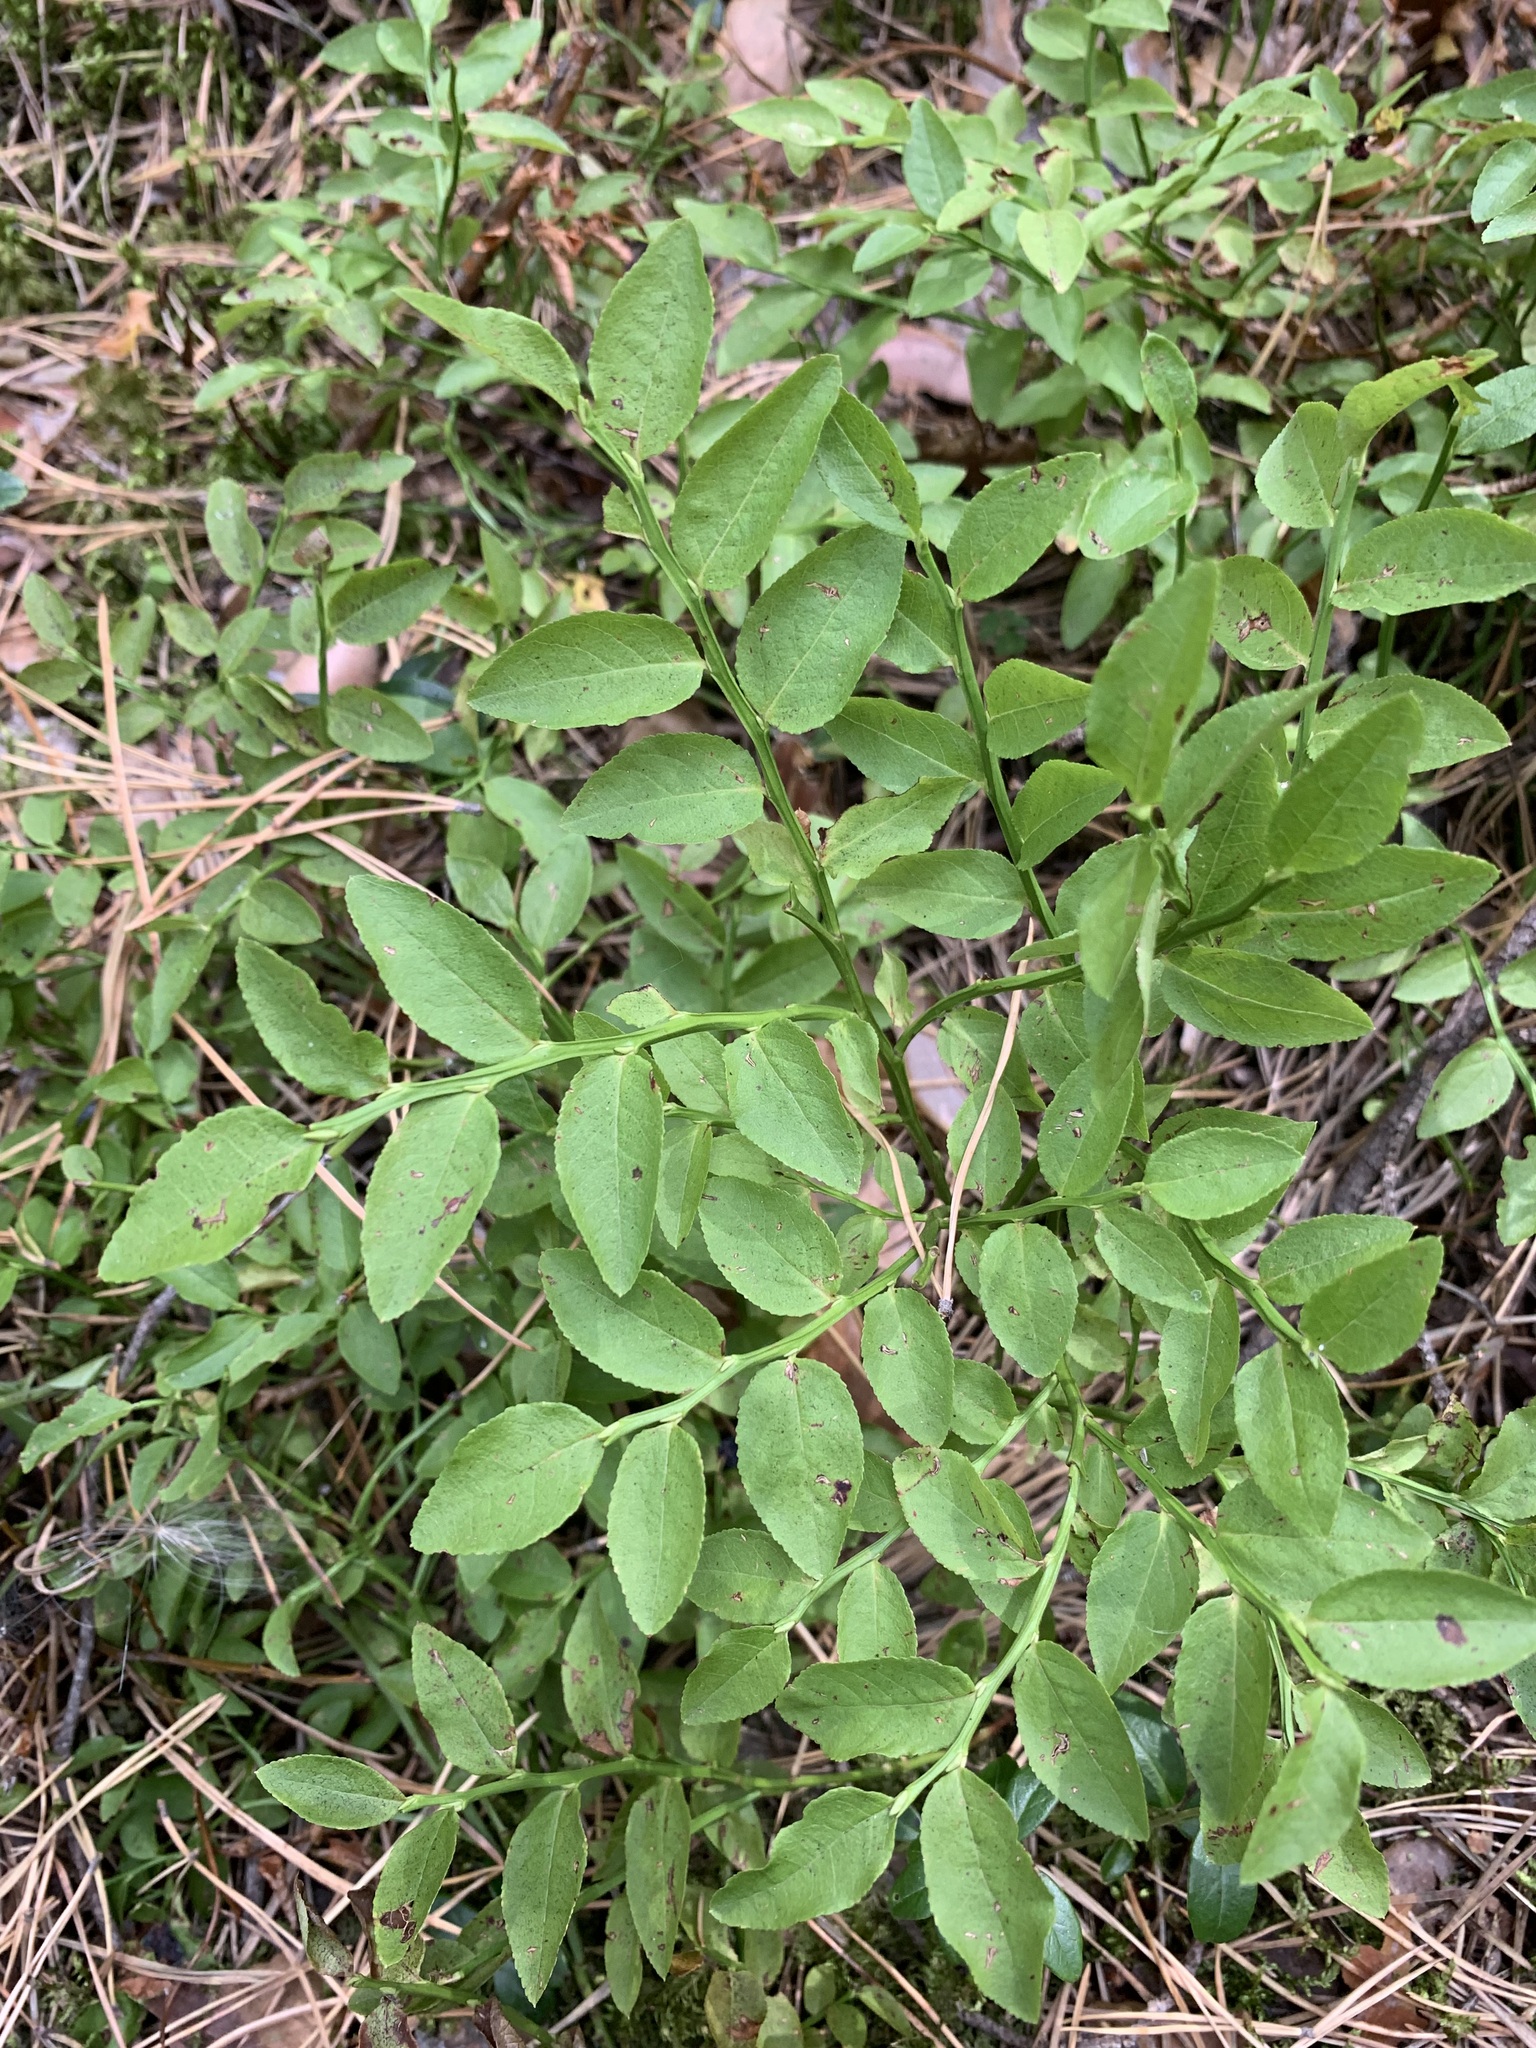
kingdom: Plantae
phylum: Tracheophyta
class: Magnoliopsida
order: Ericales
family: Ericaceae
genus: Vaccinium
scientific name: Vaccinium myrtillus
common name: Bilberry
